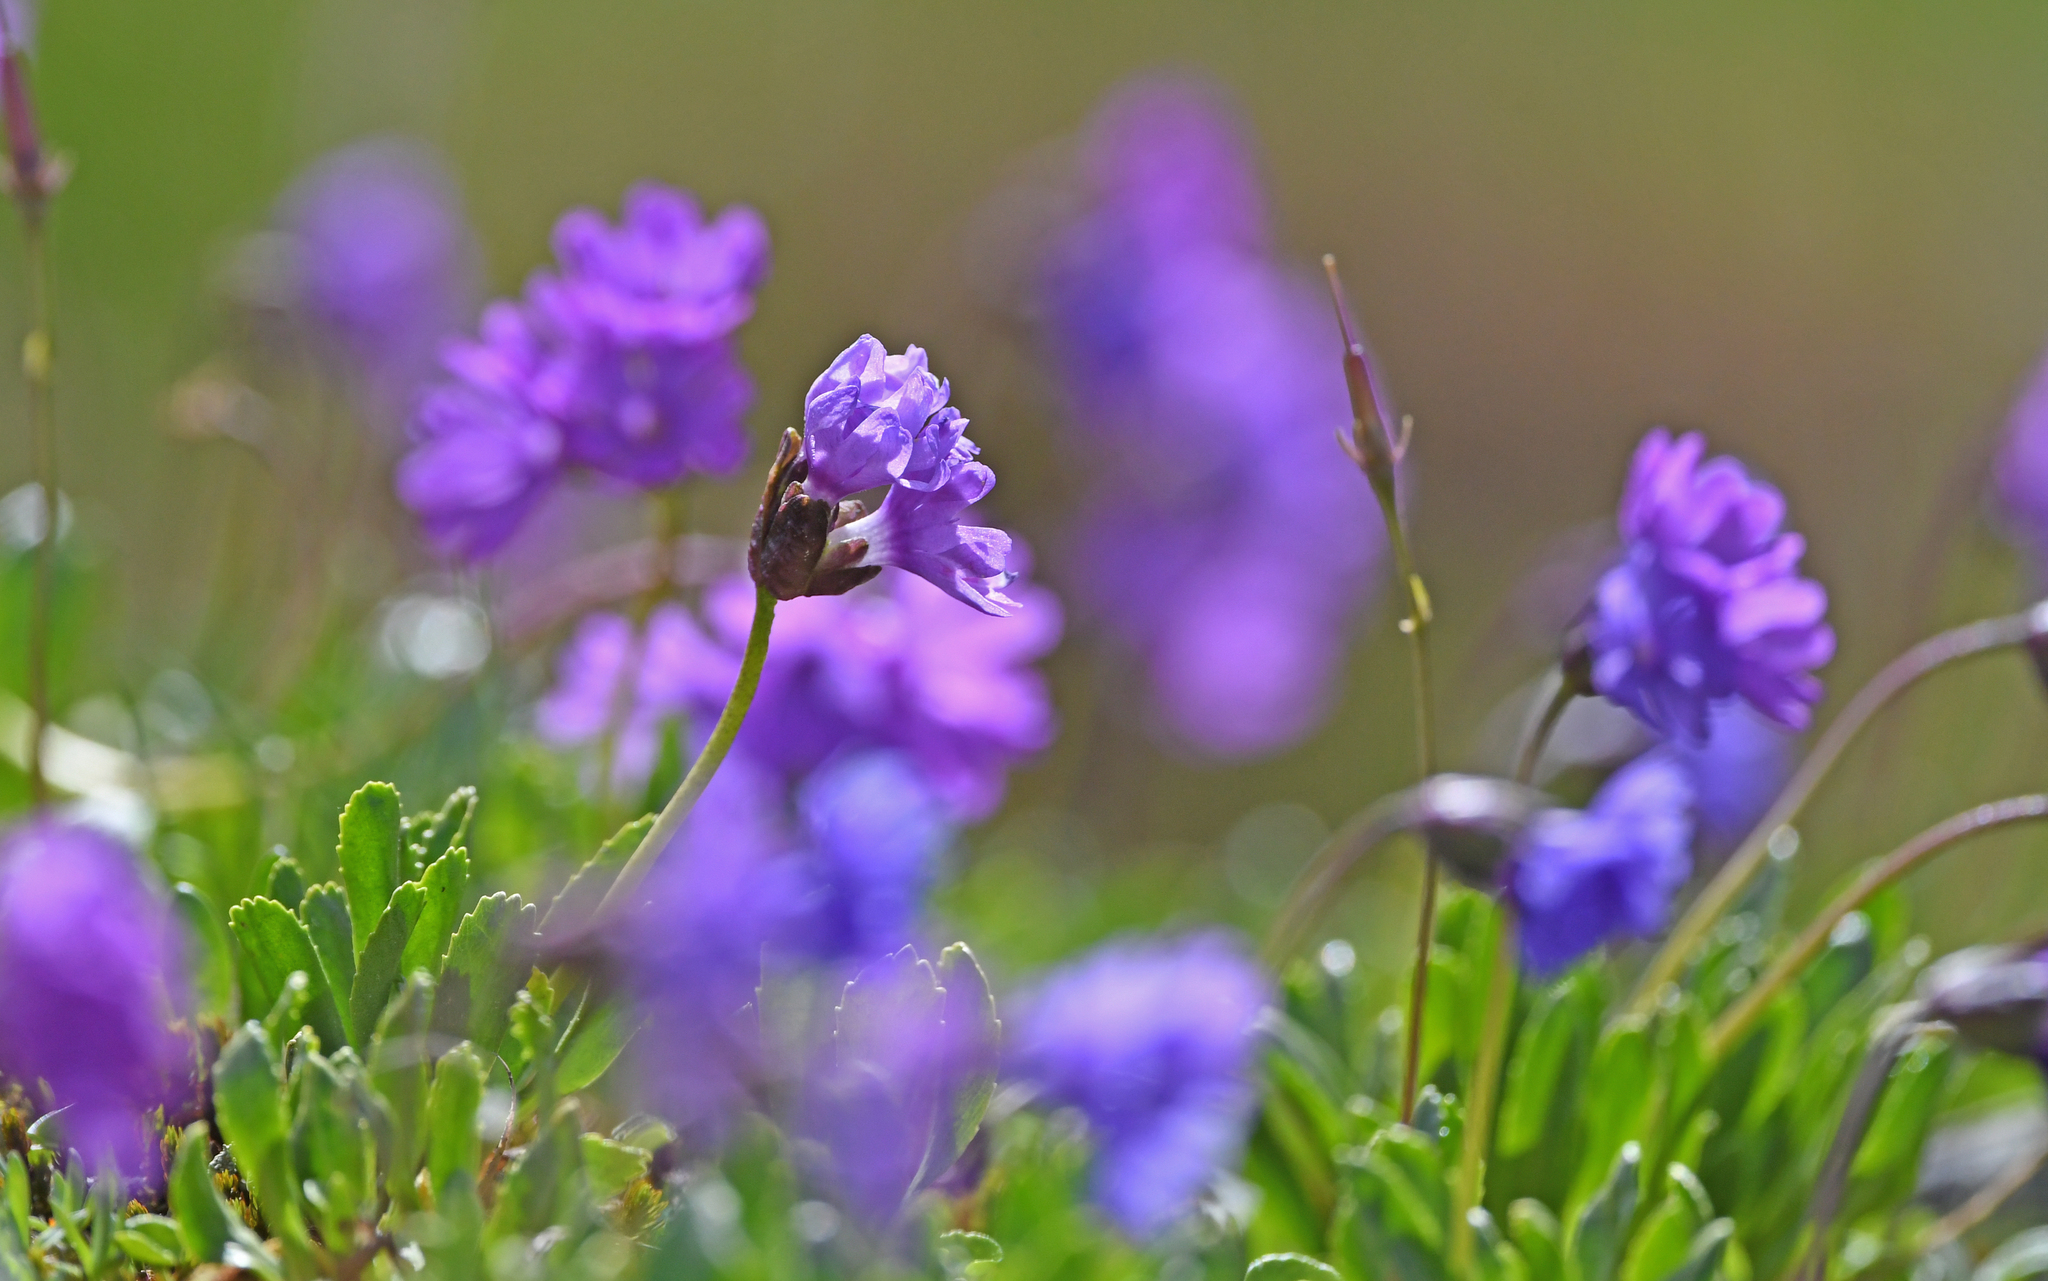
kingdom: Plantae
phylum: Tracheophyta
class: Magnoliopsida
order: Ericales
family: Primulaceae
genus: Primula
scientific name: Primula glutinosa
